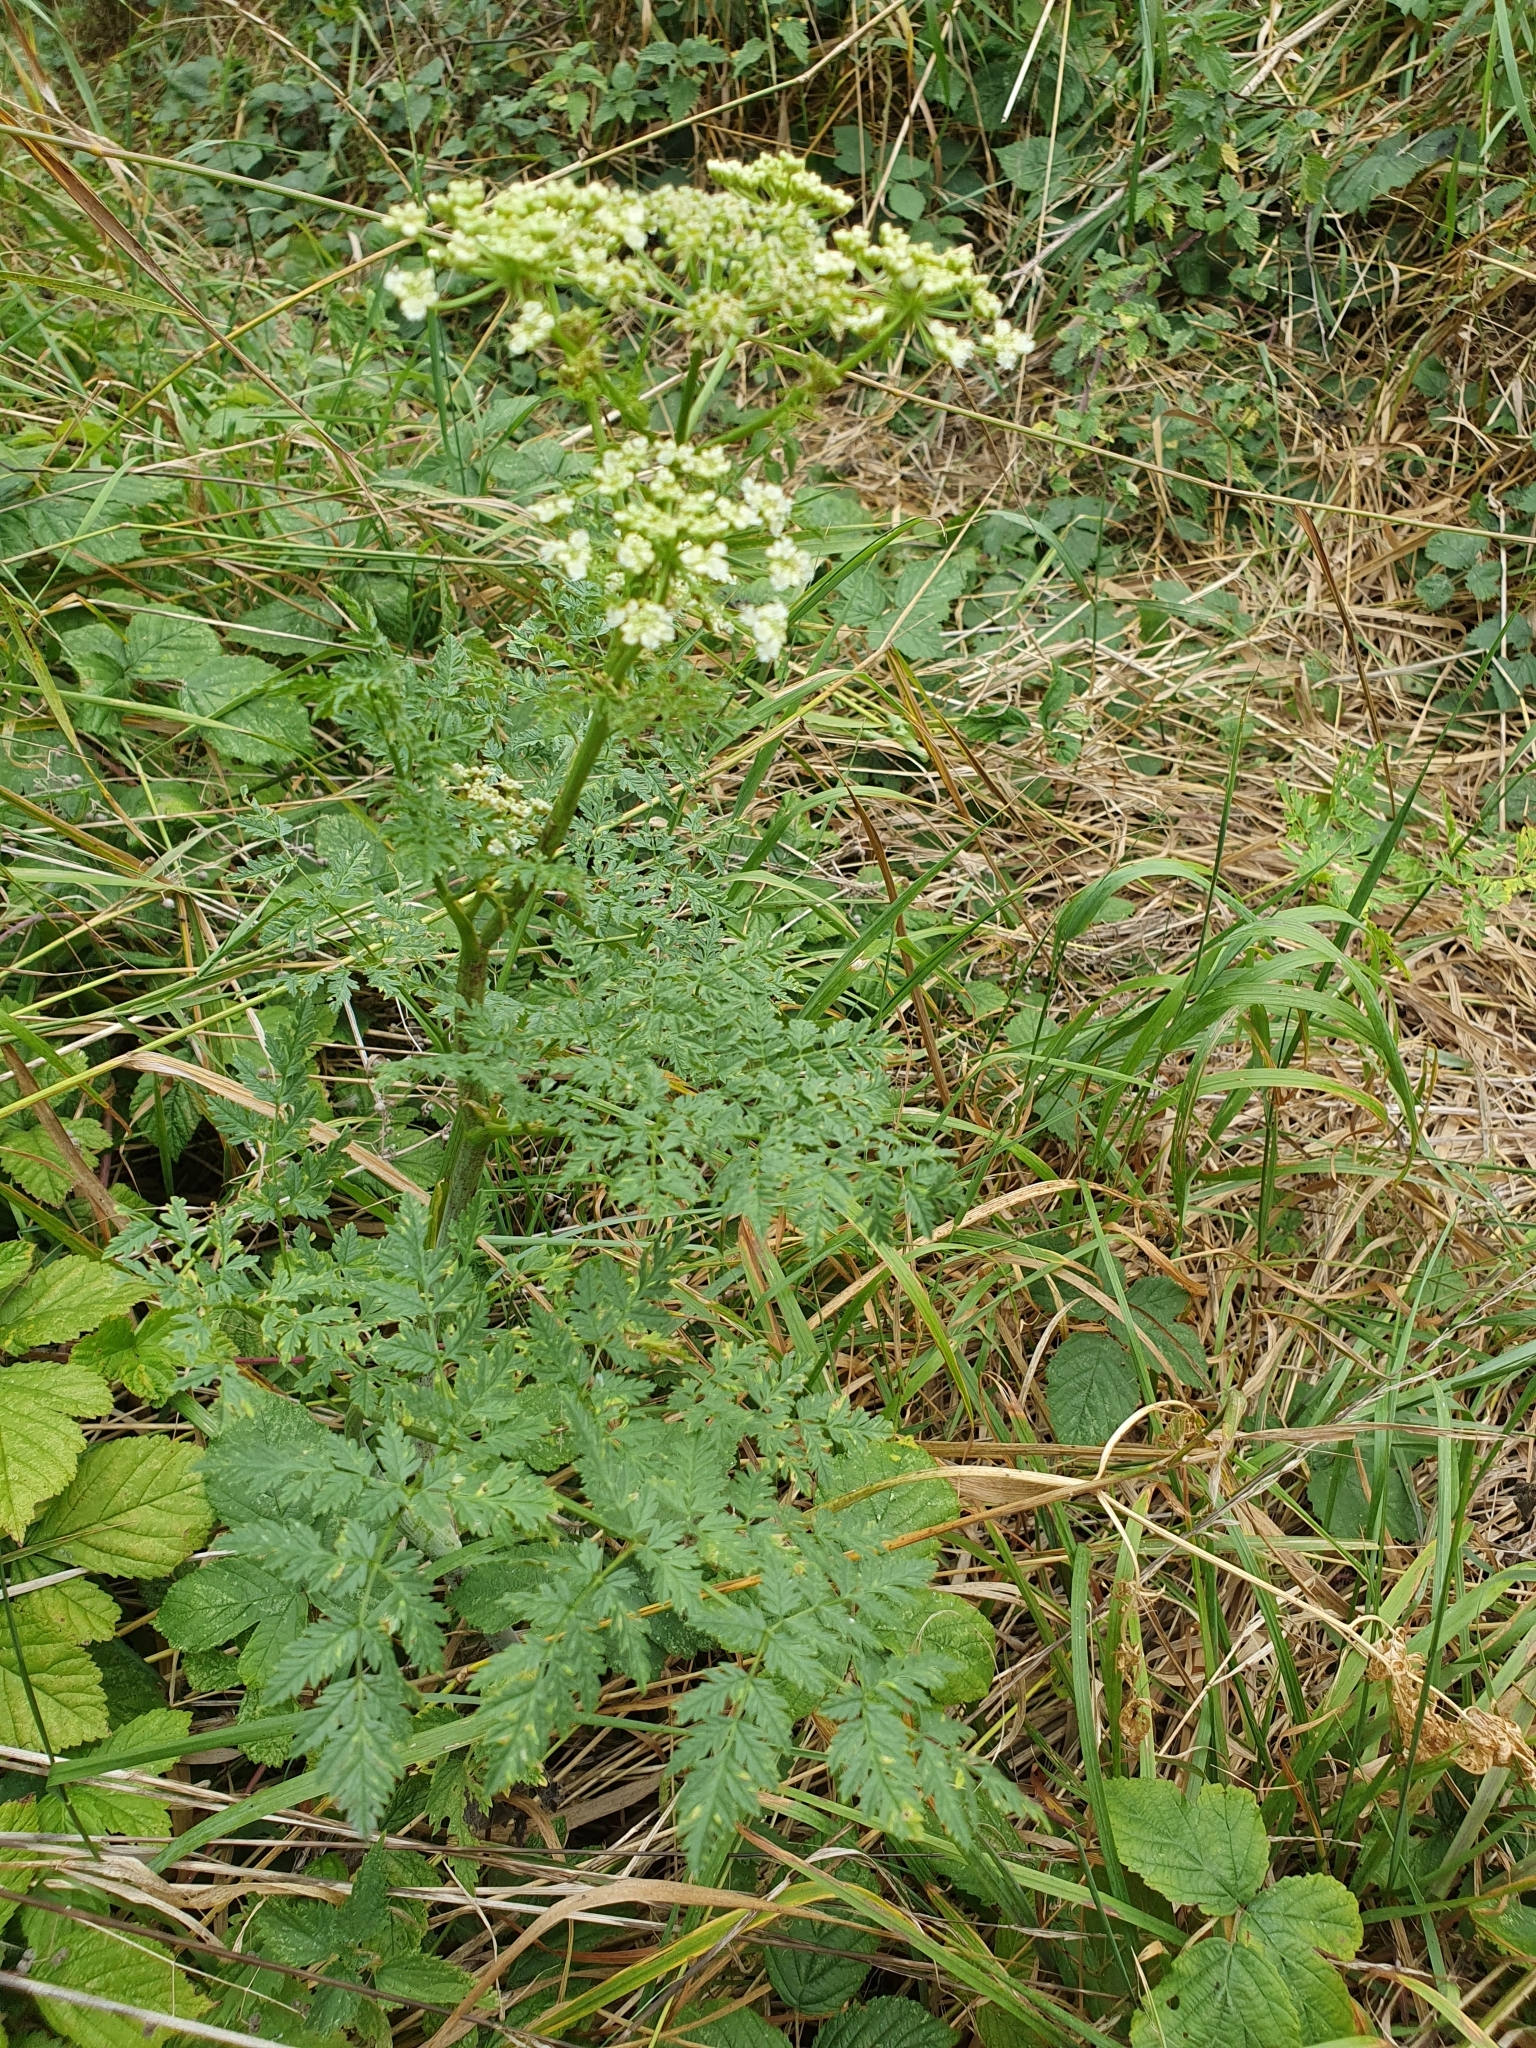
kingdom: Plantae
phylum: Tracheophyta
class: Magnoliopsida
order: Apiales
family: Apiaceae
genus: Conium
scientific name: Conium maculatum
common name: Hemlock
